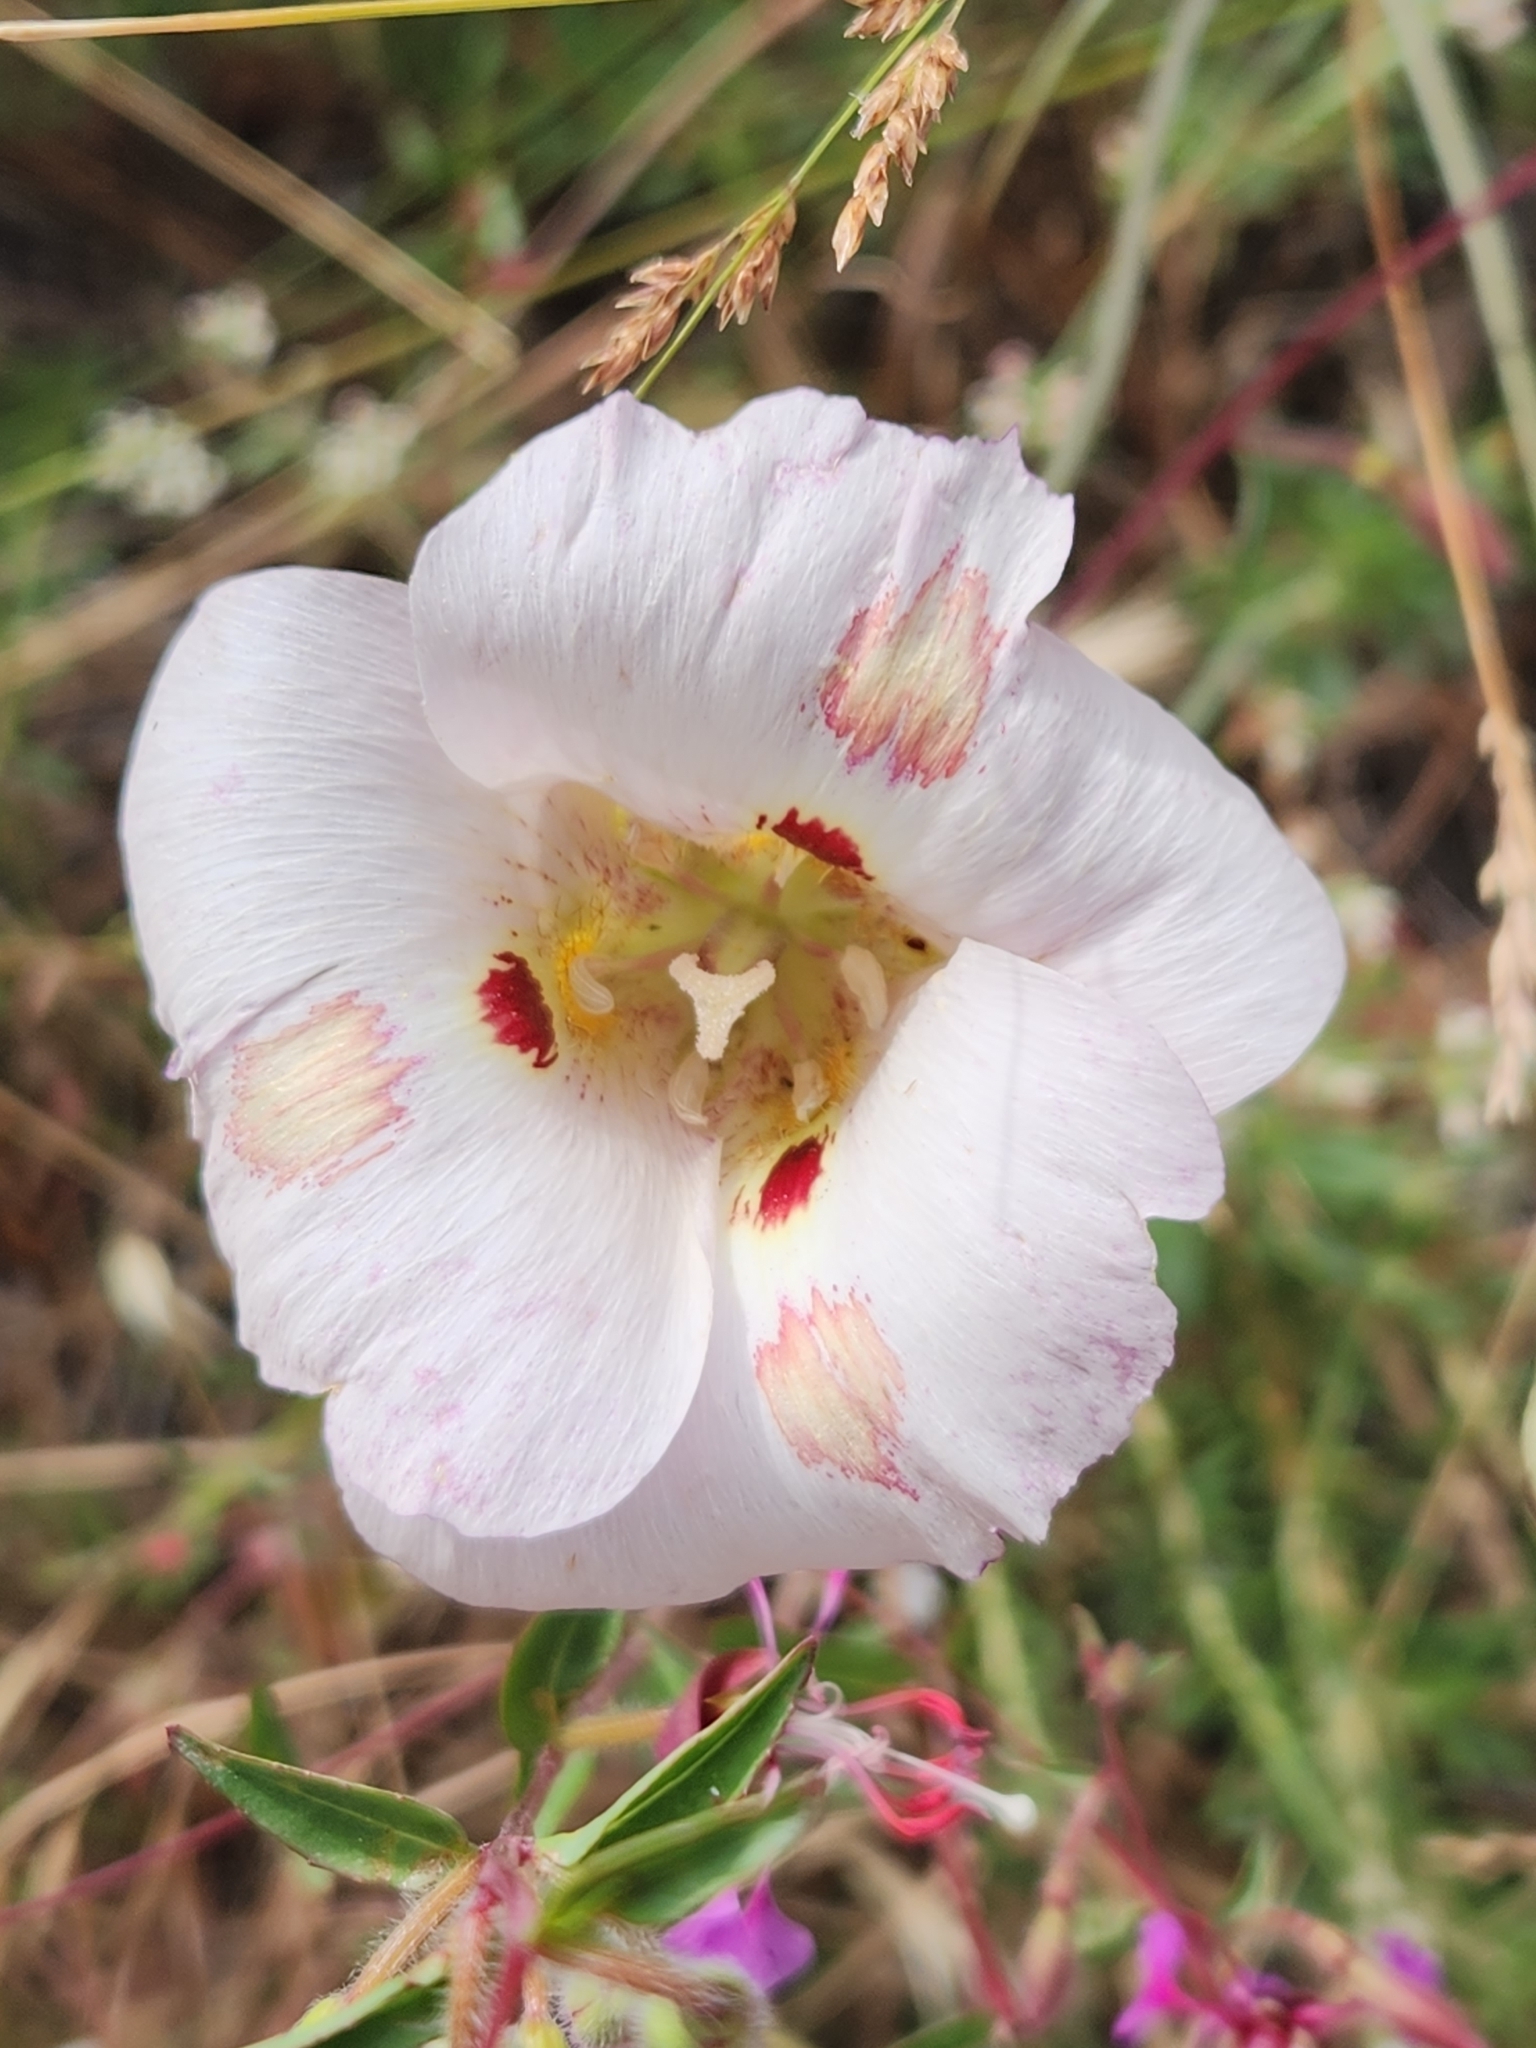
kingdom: Plantae
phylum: Tracheophyta
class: Liliopsida
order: Liliales
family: Liliaceae
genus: Calochortus
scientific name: Calochortus venustus
